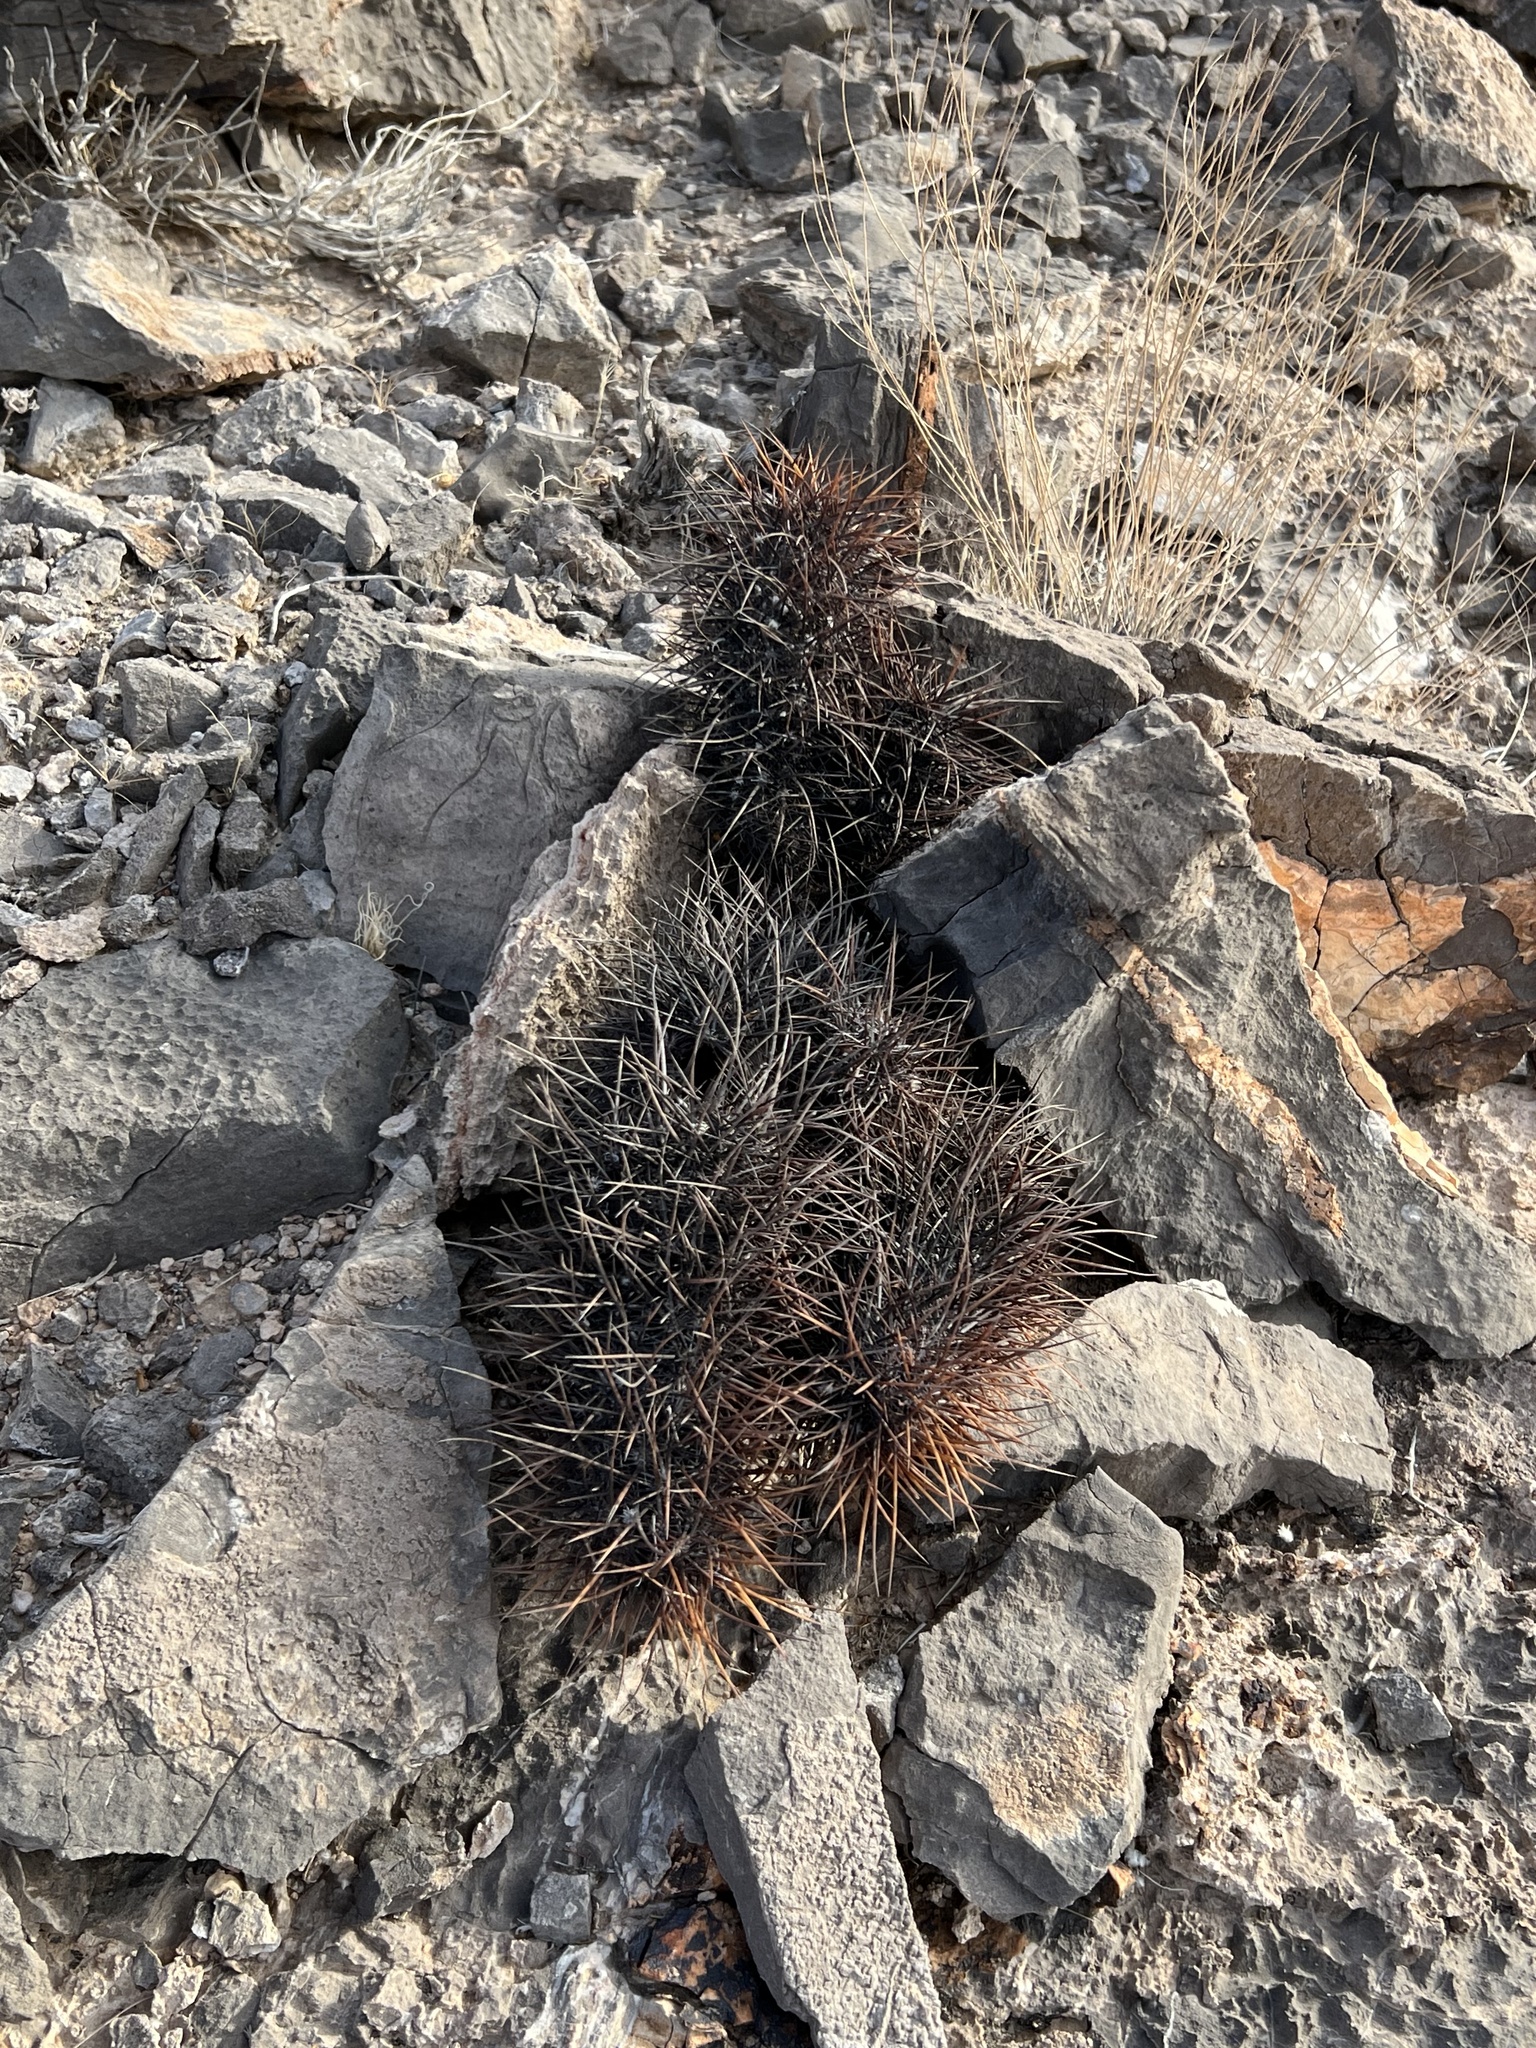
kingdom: Plantae
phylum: Tracheophyta
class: Magnoliopsida
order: Caryophyllales
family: Cactaceae
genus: Echinocereus
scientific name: Echinocereus engelmannii
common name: Engelmann's hedgehog cactus
